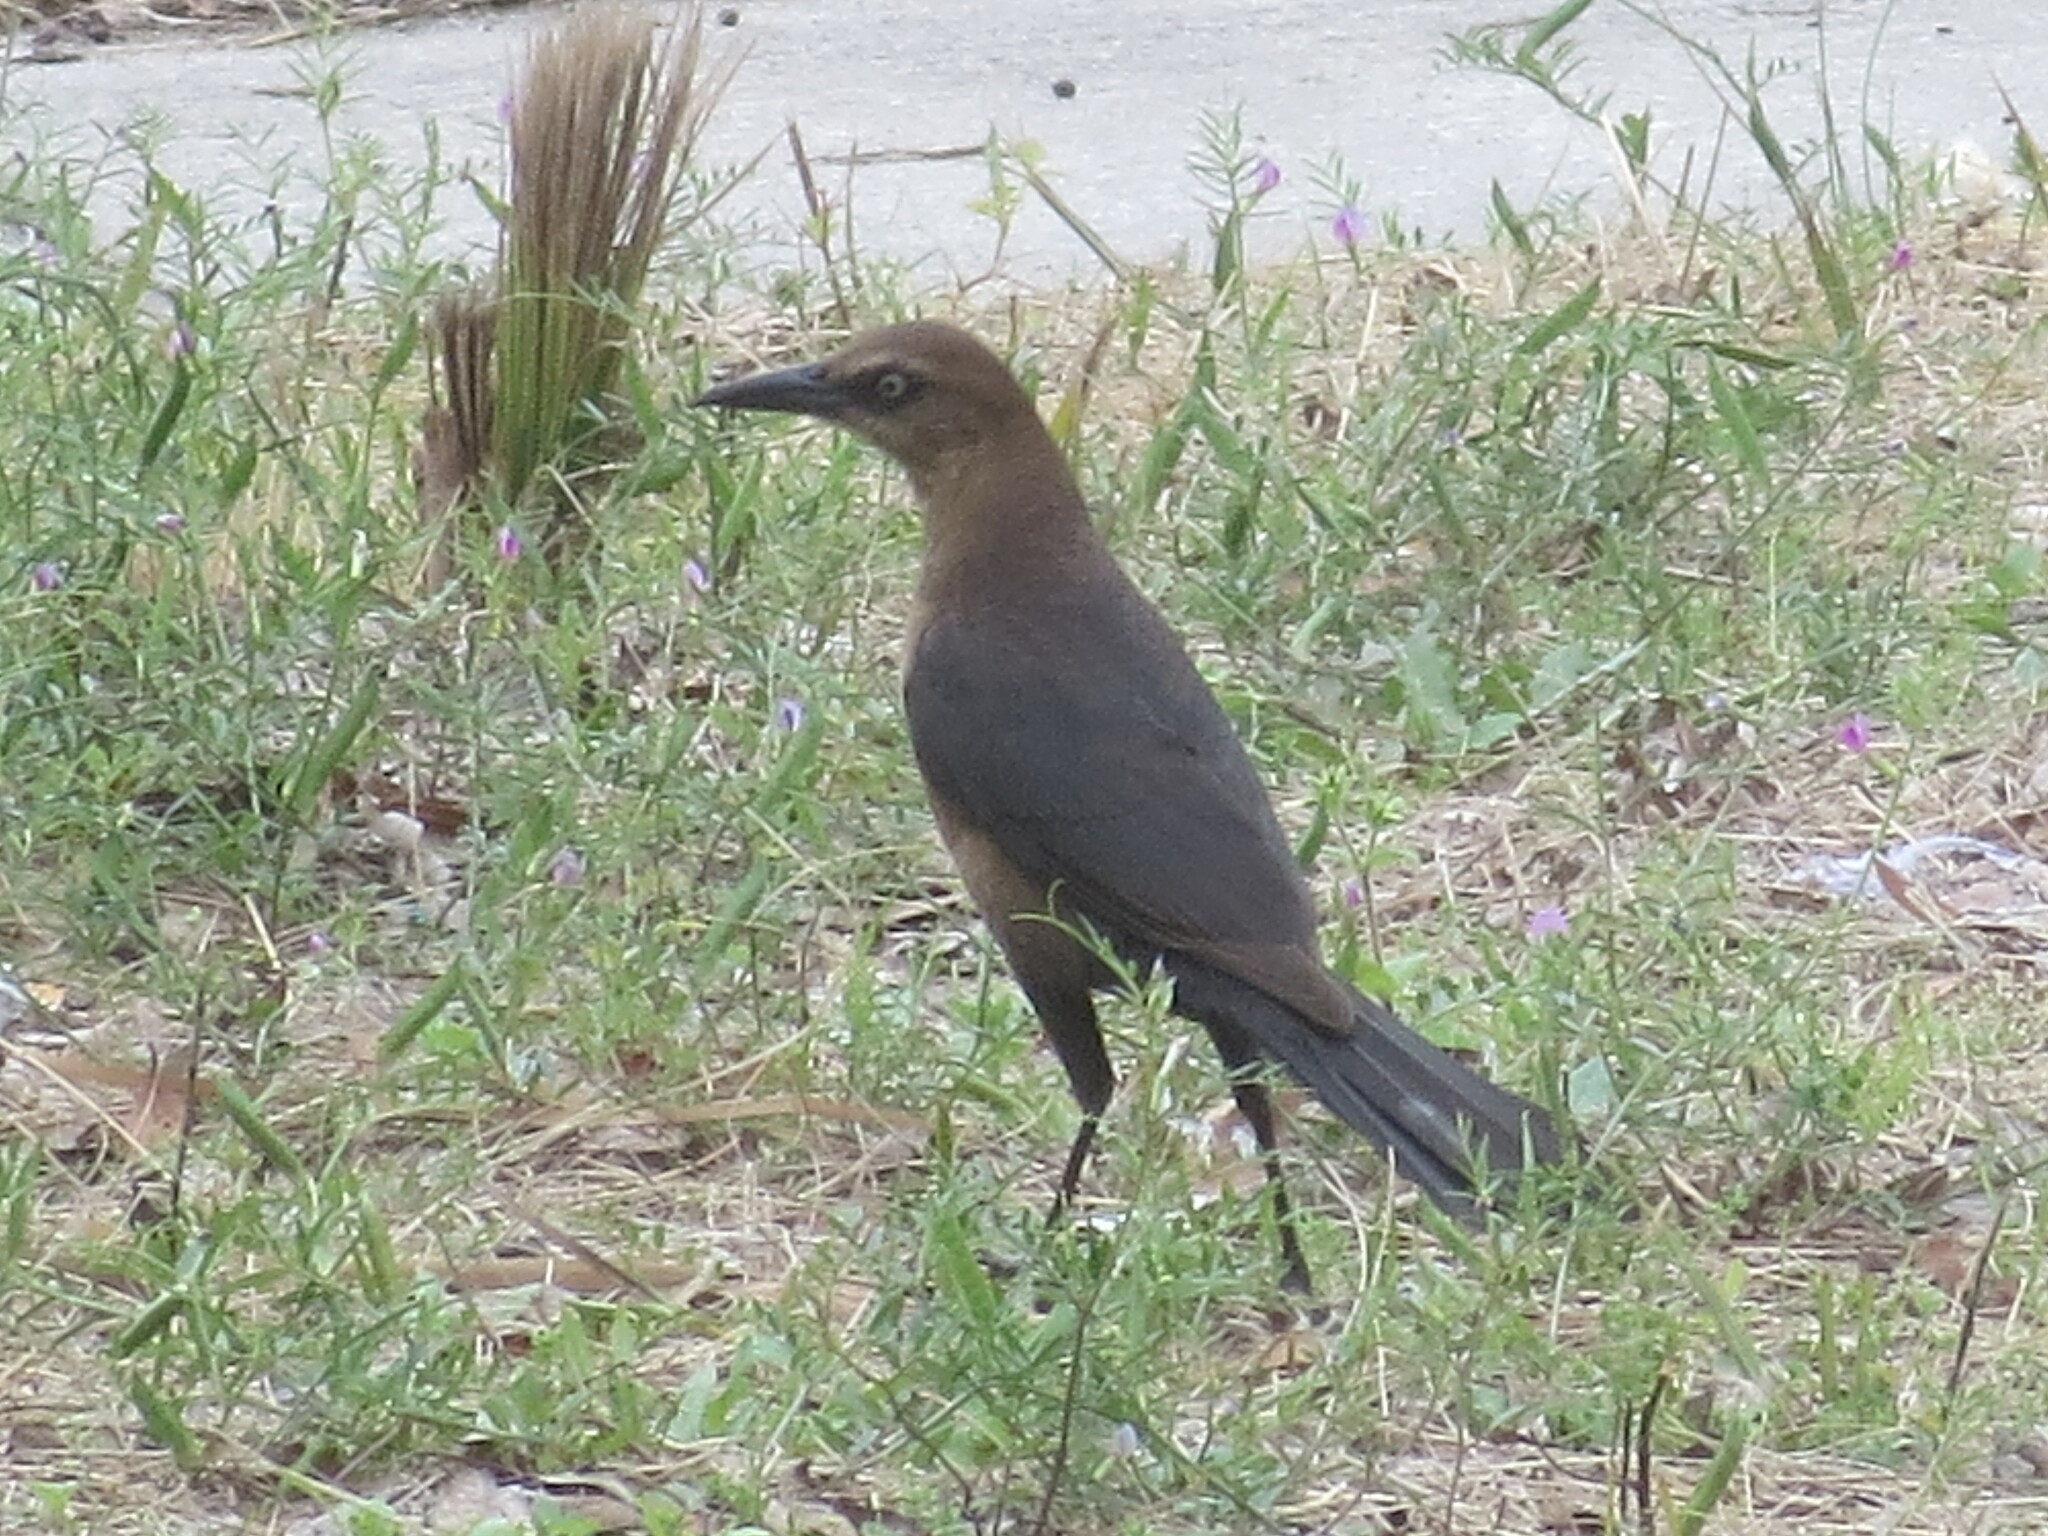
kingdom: Animalia
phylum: Chordata
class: Aves
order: Passeriformes
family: Icteridae
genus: Quiscalus
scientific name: Quiscalus major
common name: Boat-tailed grackle
